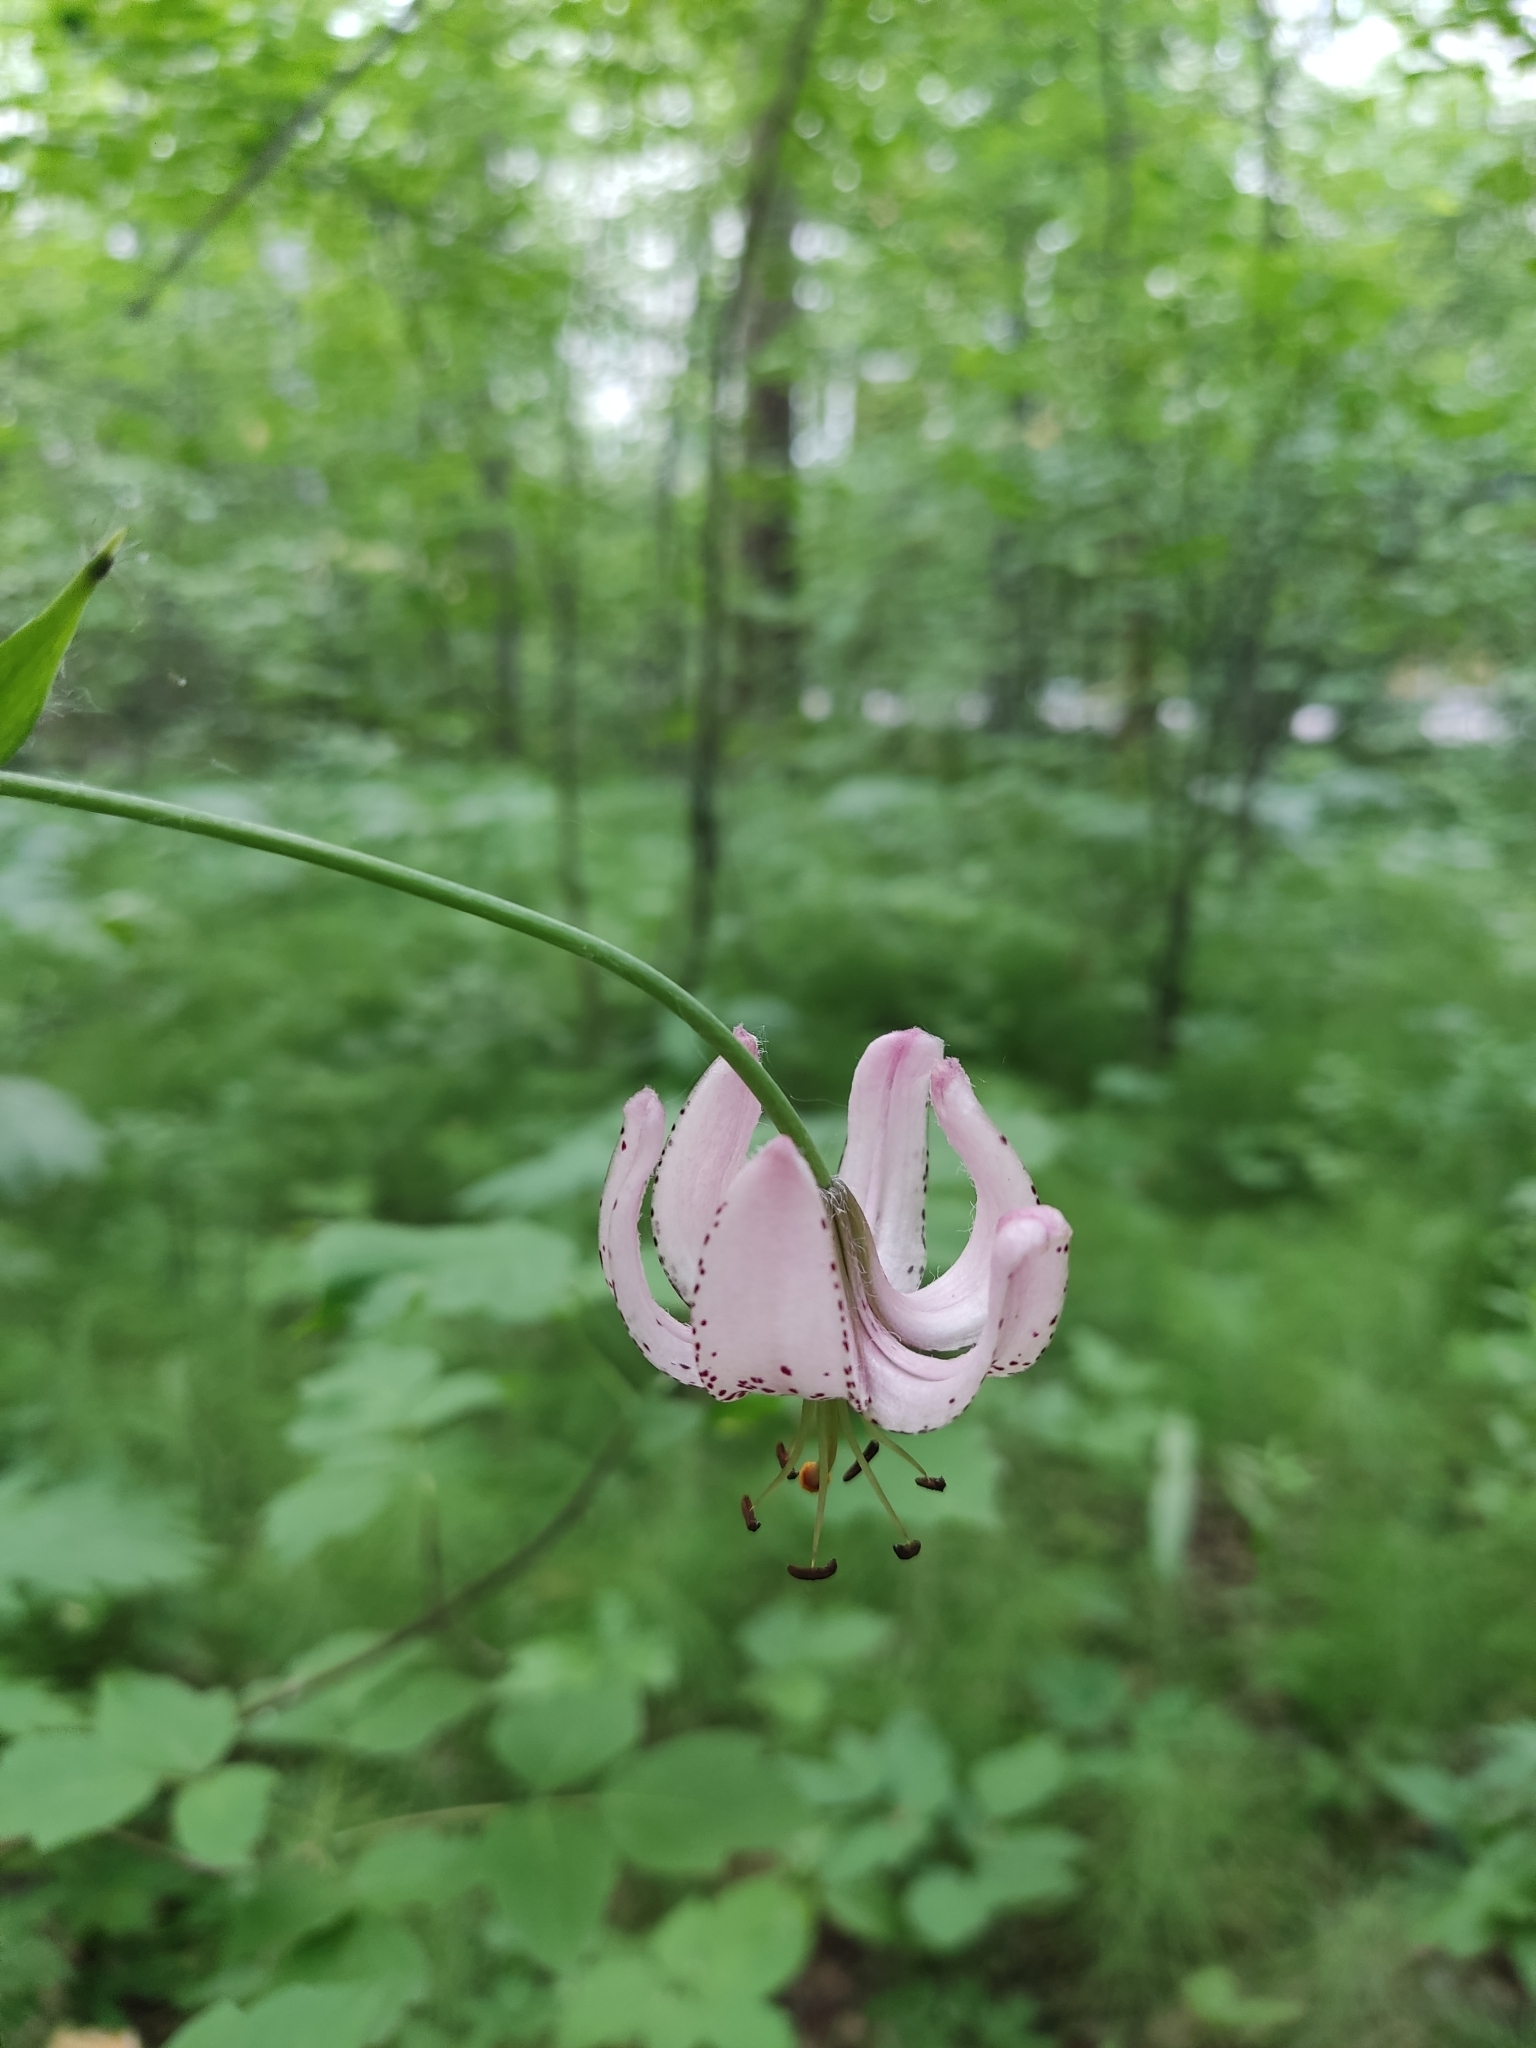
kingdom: Plantae
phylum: Tracheophyta
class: Liliopsida
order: Liliales
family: Liliaceae
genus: Lilium
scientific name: Lilium martagon
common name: Martagon lily
